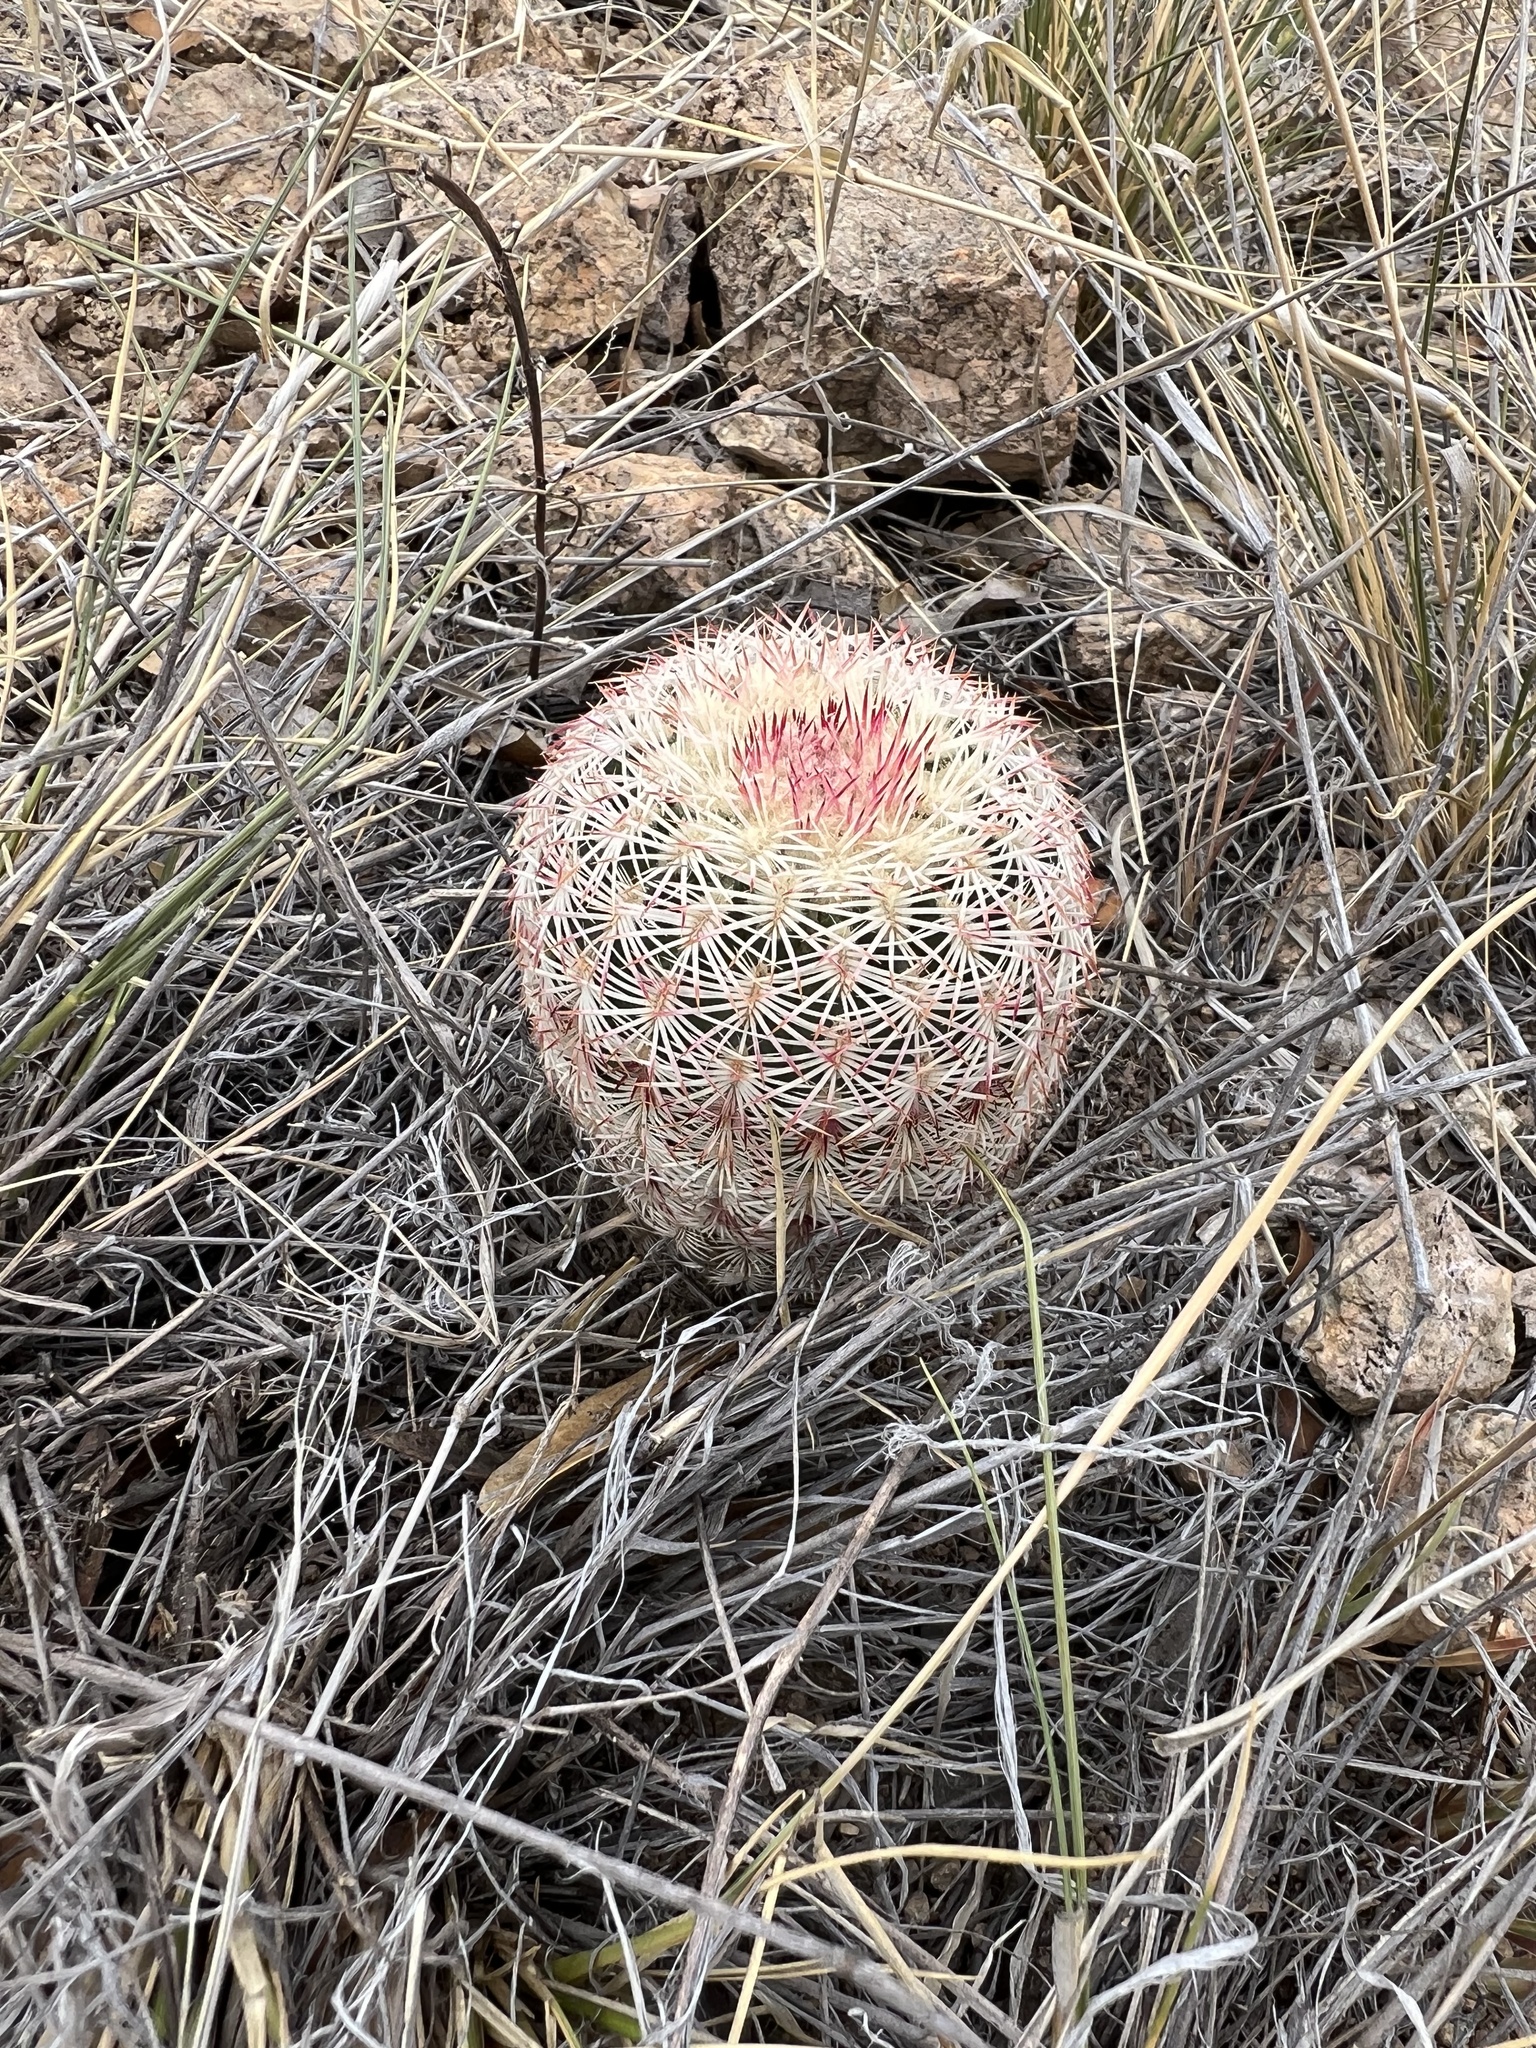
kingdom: Plantae
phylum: Tracheophyta
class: Magnoliopsida
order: Caryophyllales
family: Cactaceae
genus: Echinocereus
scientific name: Echinocereus rigidissimus
